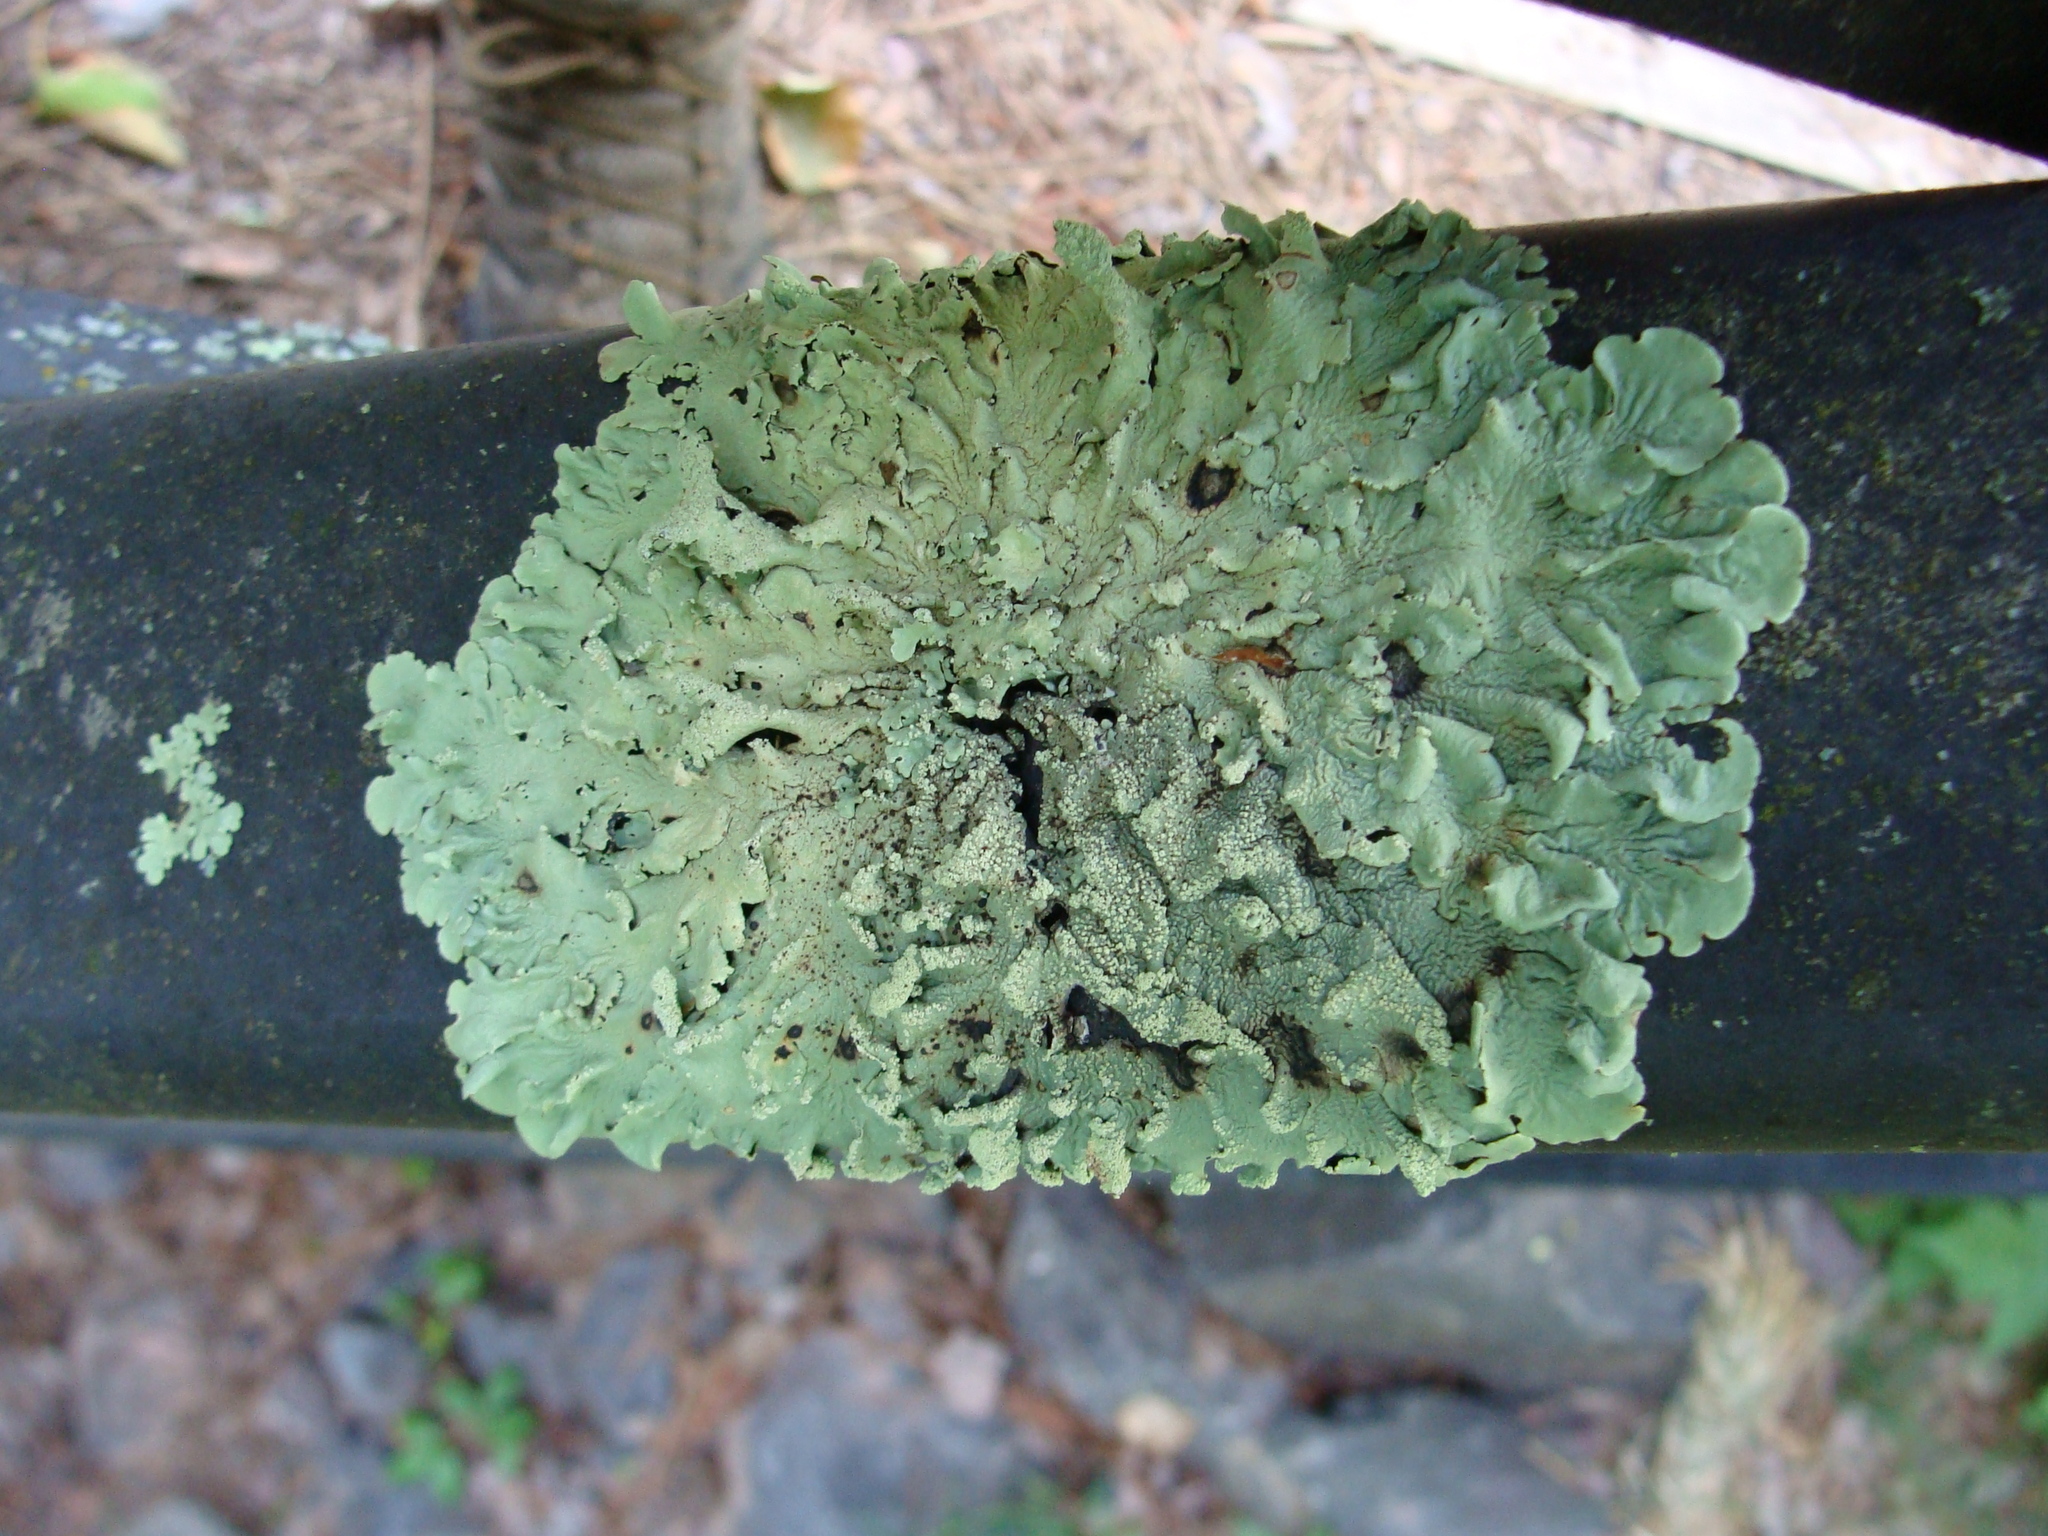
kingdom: Fungi
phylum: Ascomycota
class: Lecanoromycetes
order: Lecanorales
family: Parmeliaceae
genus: Flavoparmelia
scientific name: Flavoparmelia caperata
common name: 40-mile per hour lichen
